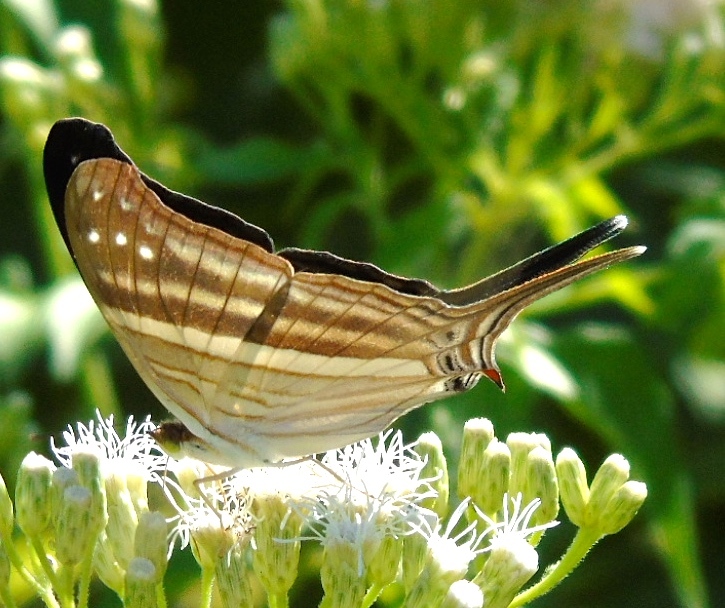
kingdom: Animalia
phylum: Arthropoda
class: Insecta
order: Lepidoptera
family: Nymphalidae
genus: Marpesia
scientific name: Marpesia chiron
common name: Many-banded daggerwing
